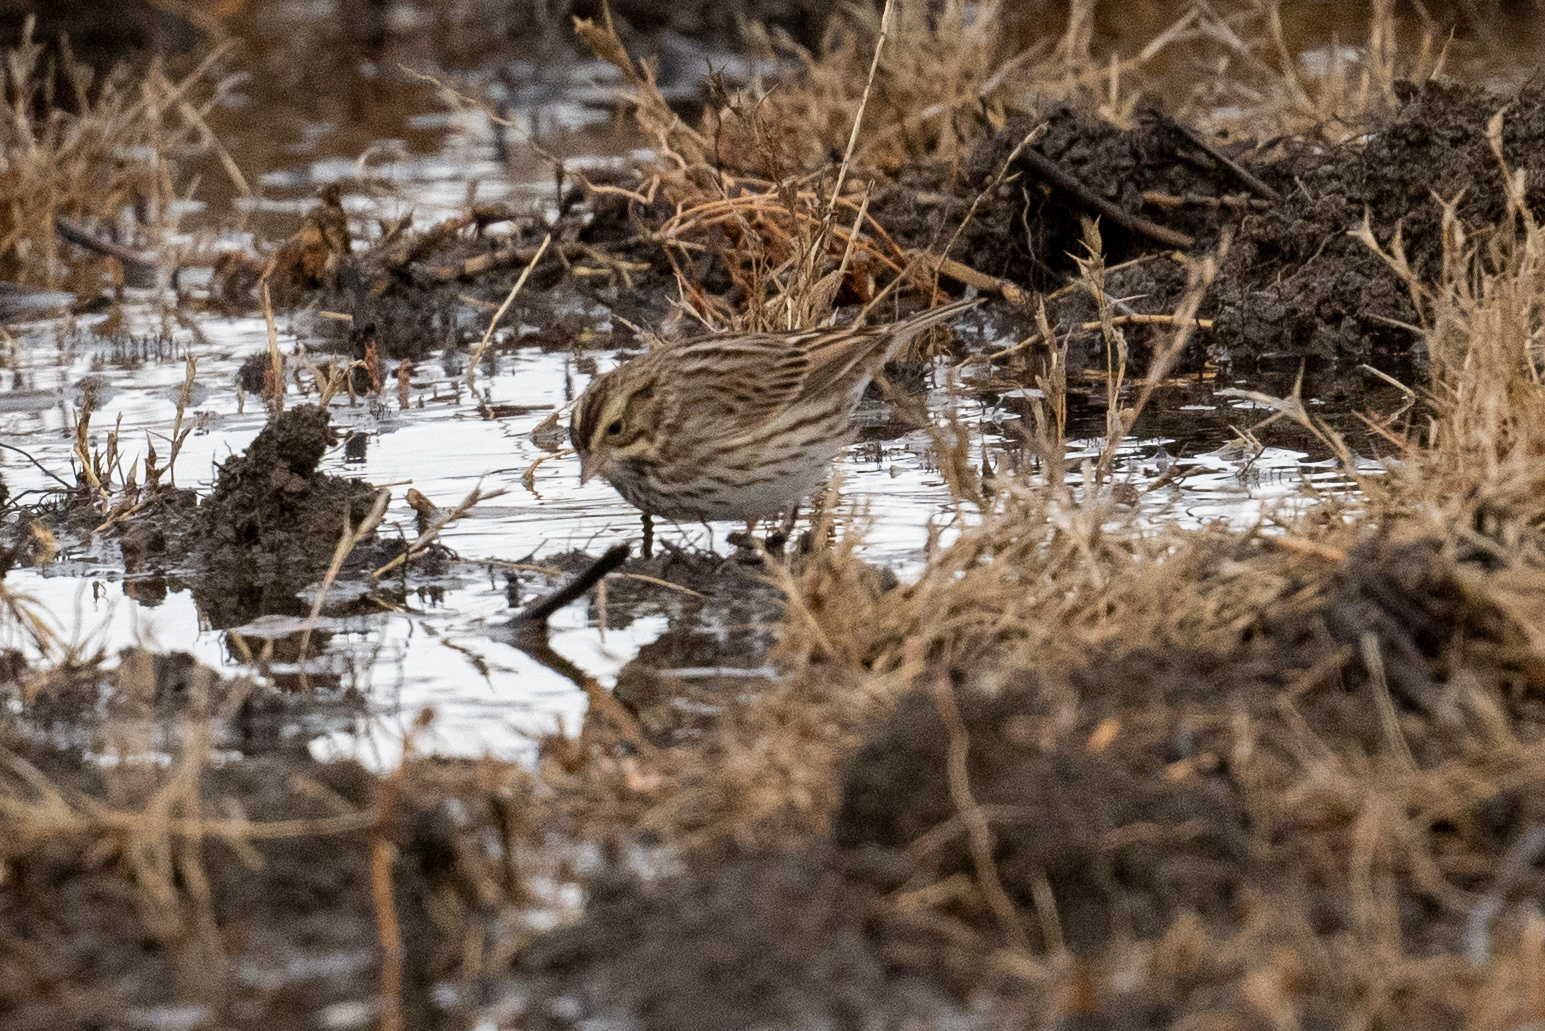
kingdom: Animalia
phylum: Chordata
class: Aves
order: Passeriformes
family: Passerellidae
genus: Passerculus
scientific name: Passerculus sandwichensis
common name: Savannah sparrow
